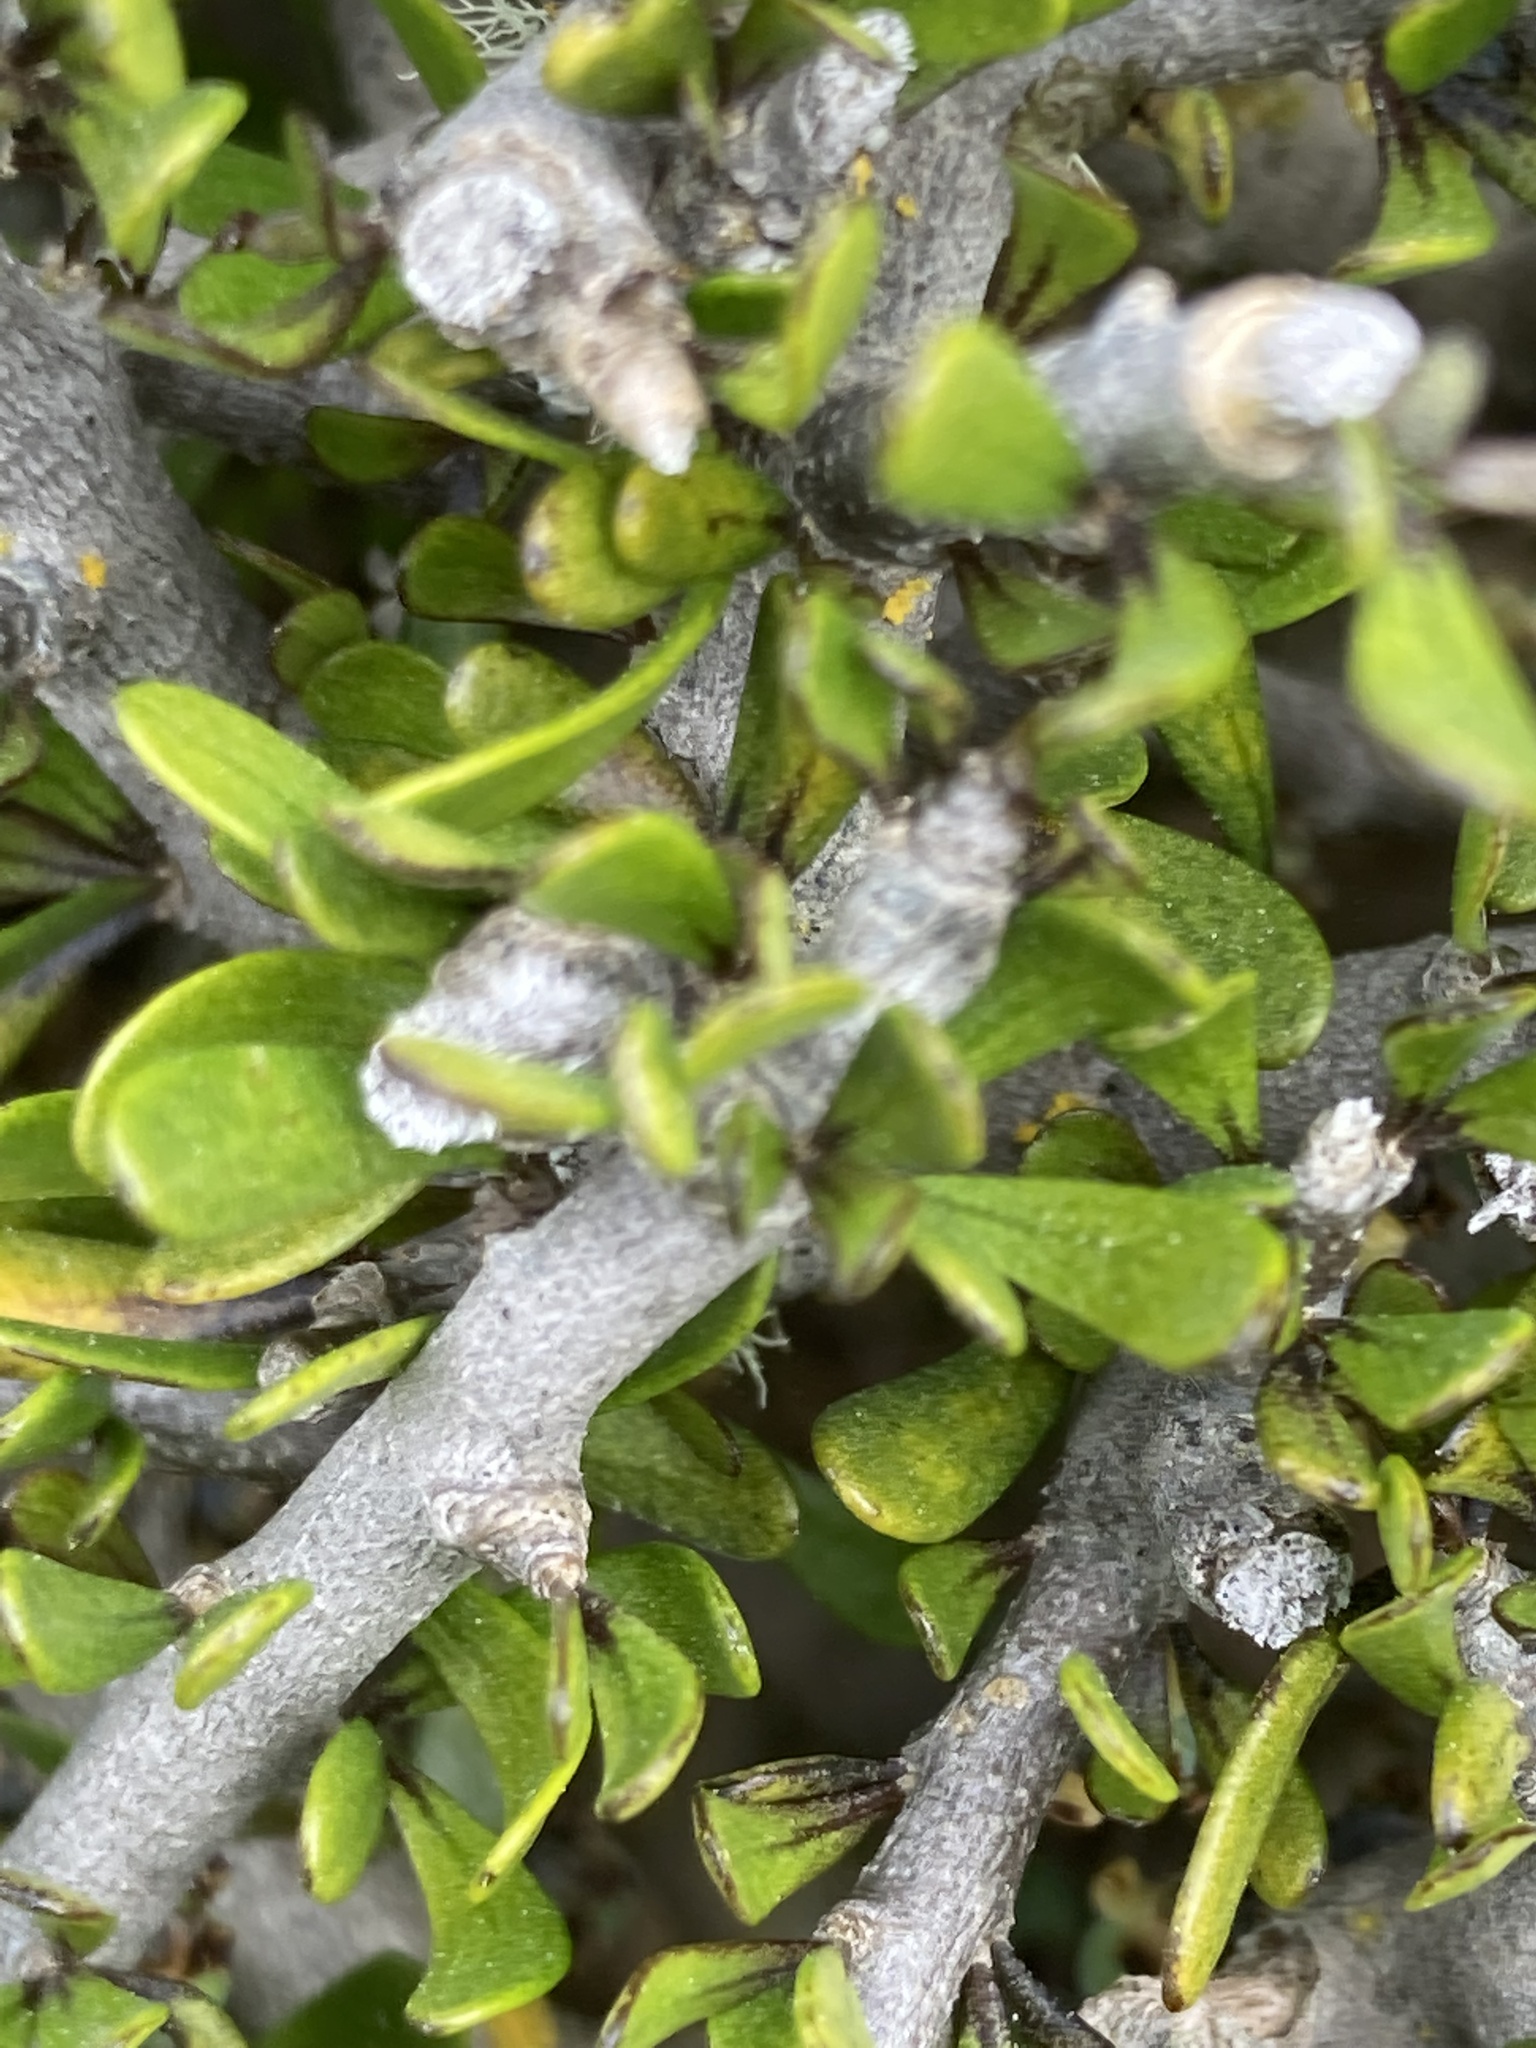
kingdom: Plantae
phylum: Tracheophyta
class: Magnoliopsida
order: Malpighiales
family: Violaceae
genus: Melicytus
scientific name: Melicytus alpinus
